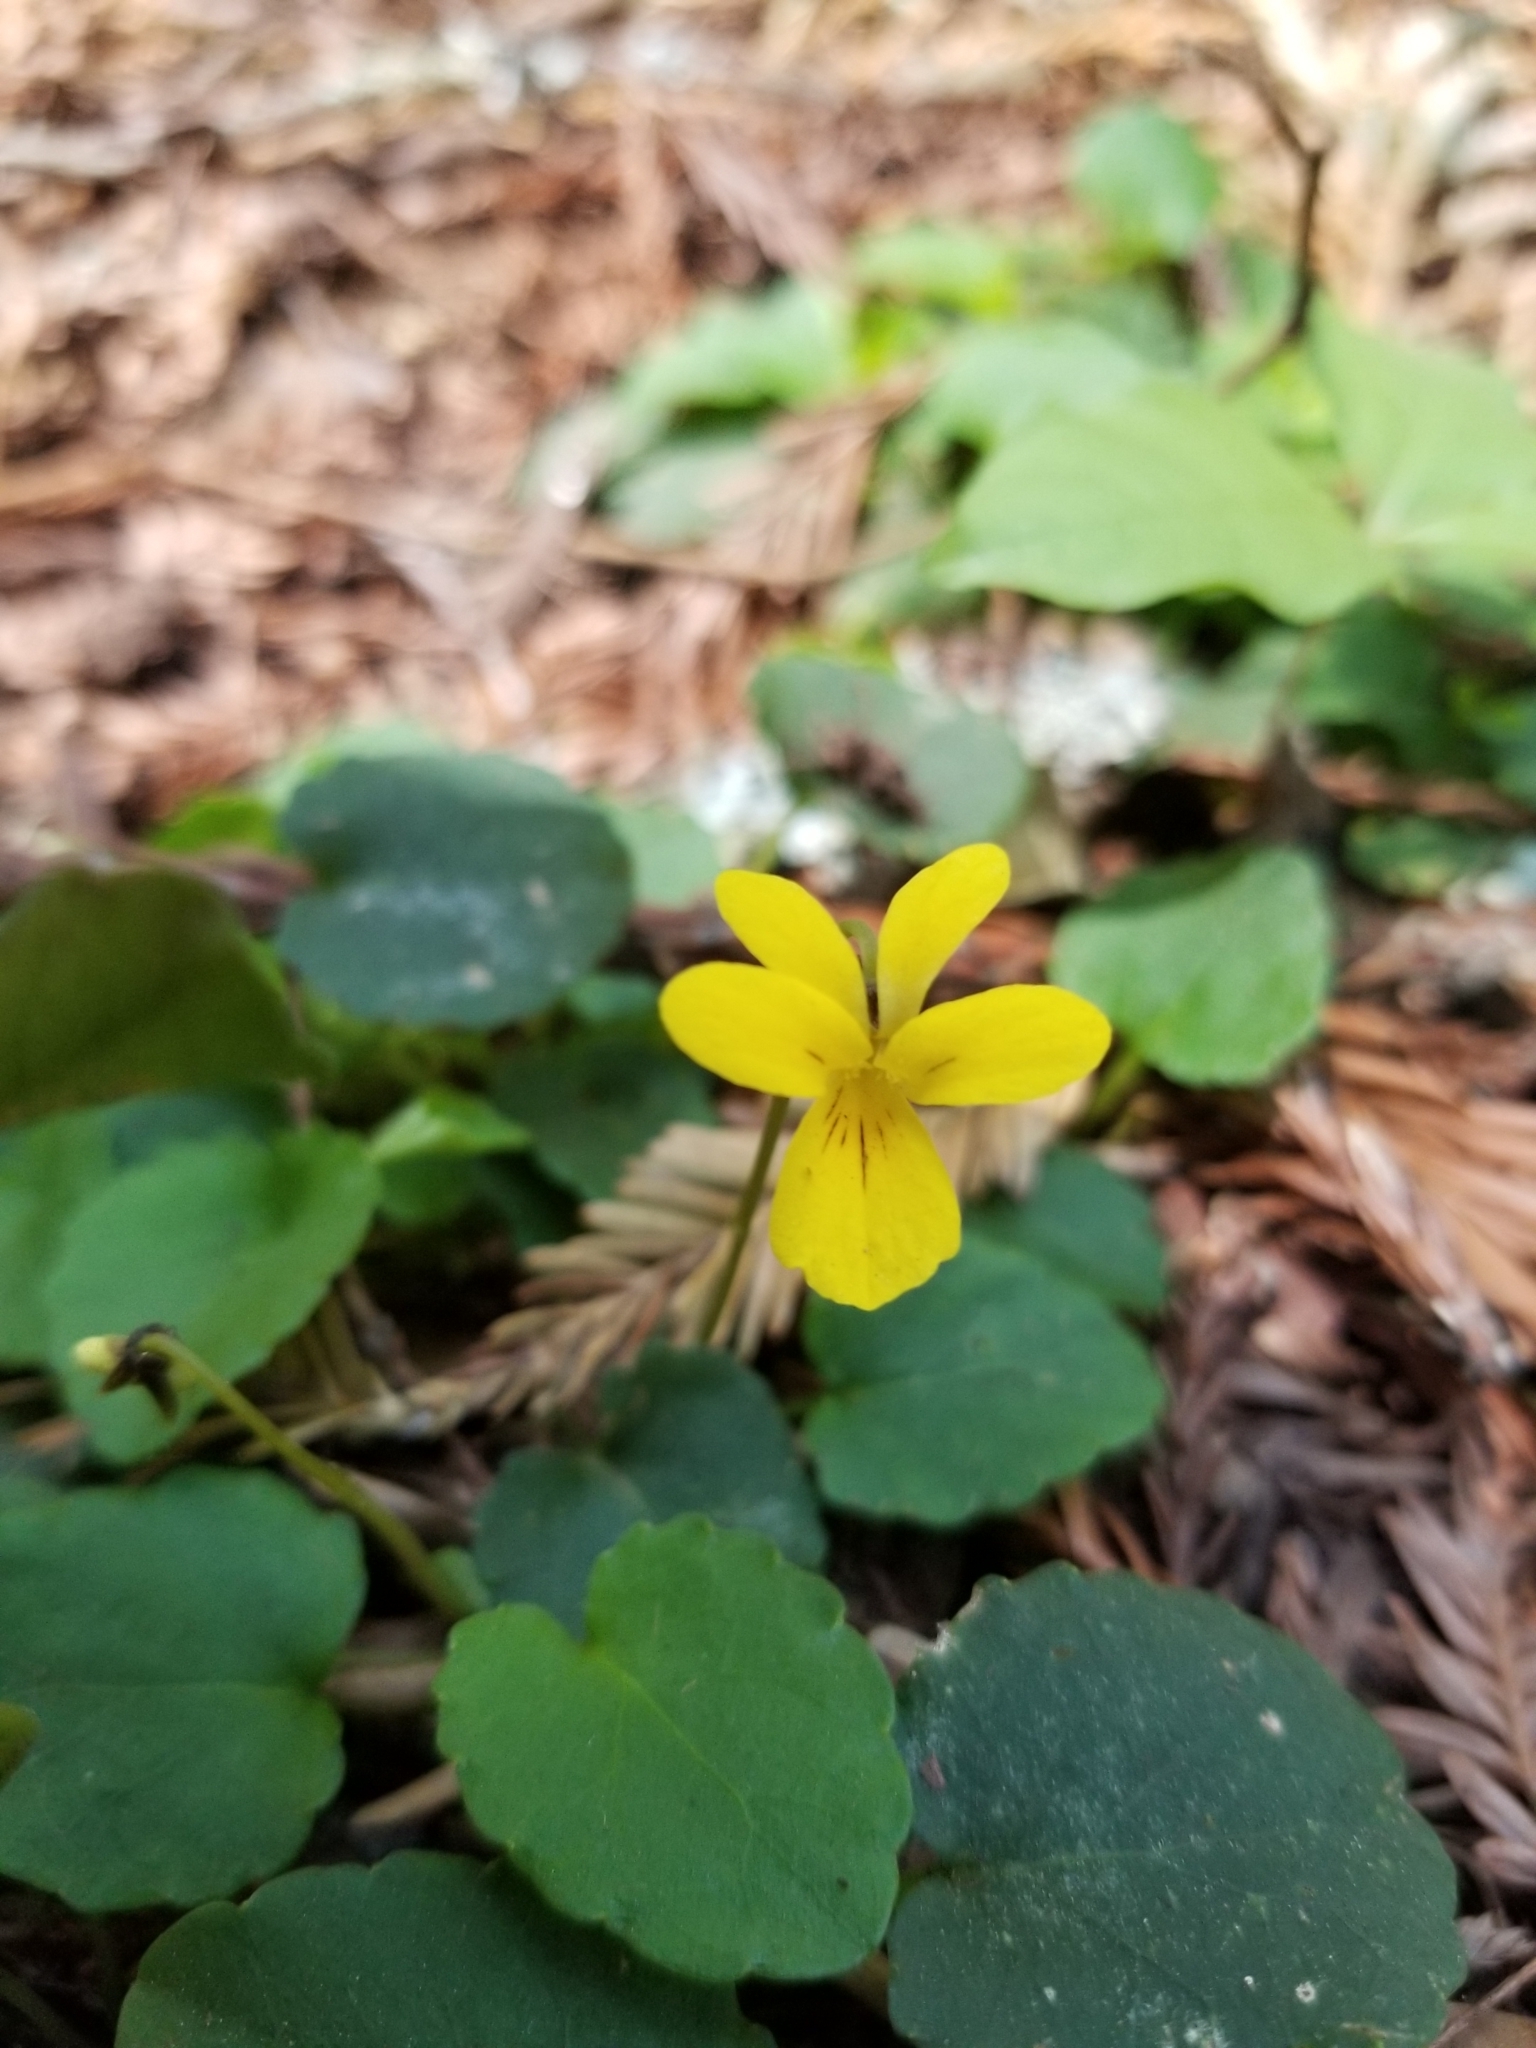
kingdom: Plantae
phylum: Tracheophyta
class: Magnoliopsida
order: Malpighiales
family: Violaceae
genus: Viola
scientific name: Viola sempervirens
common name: Evergreen violet
